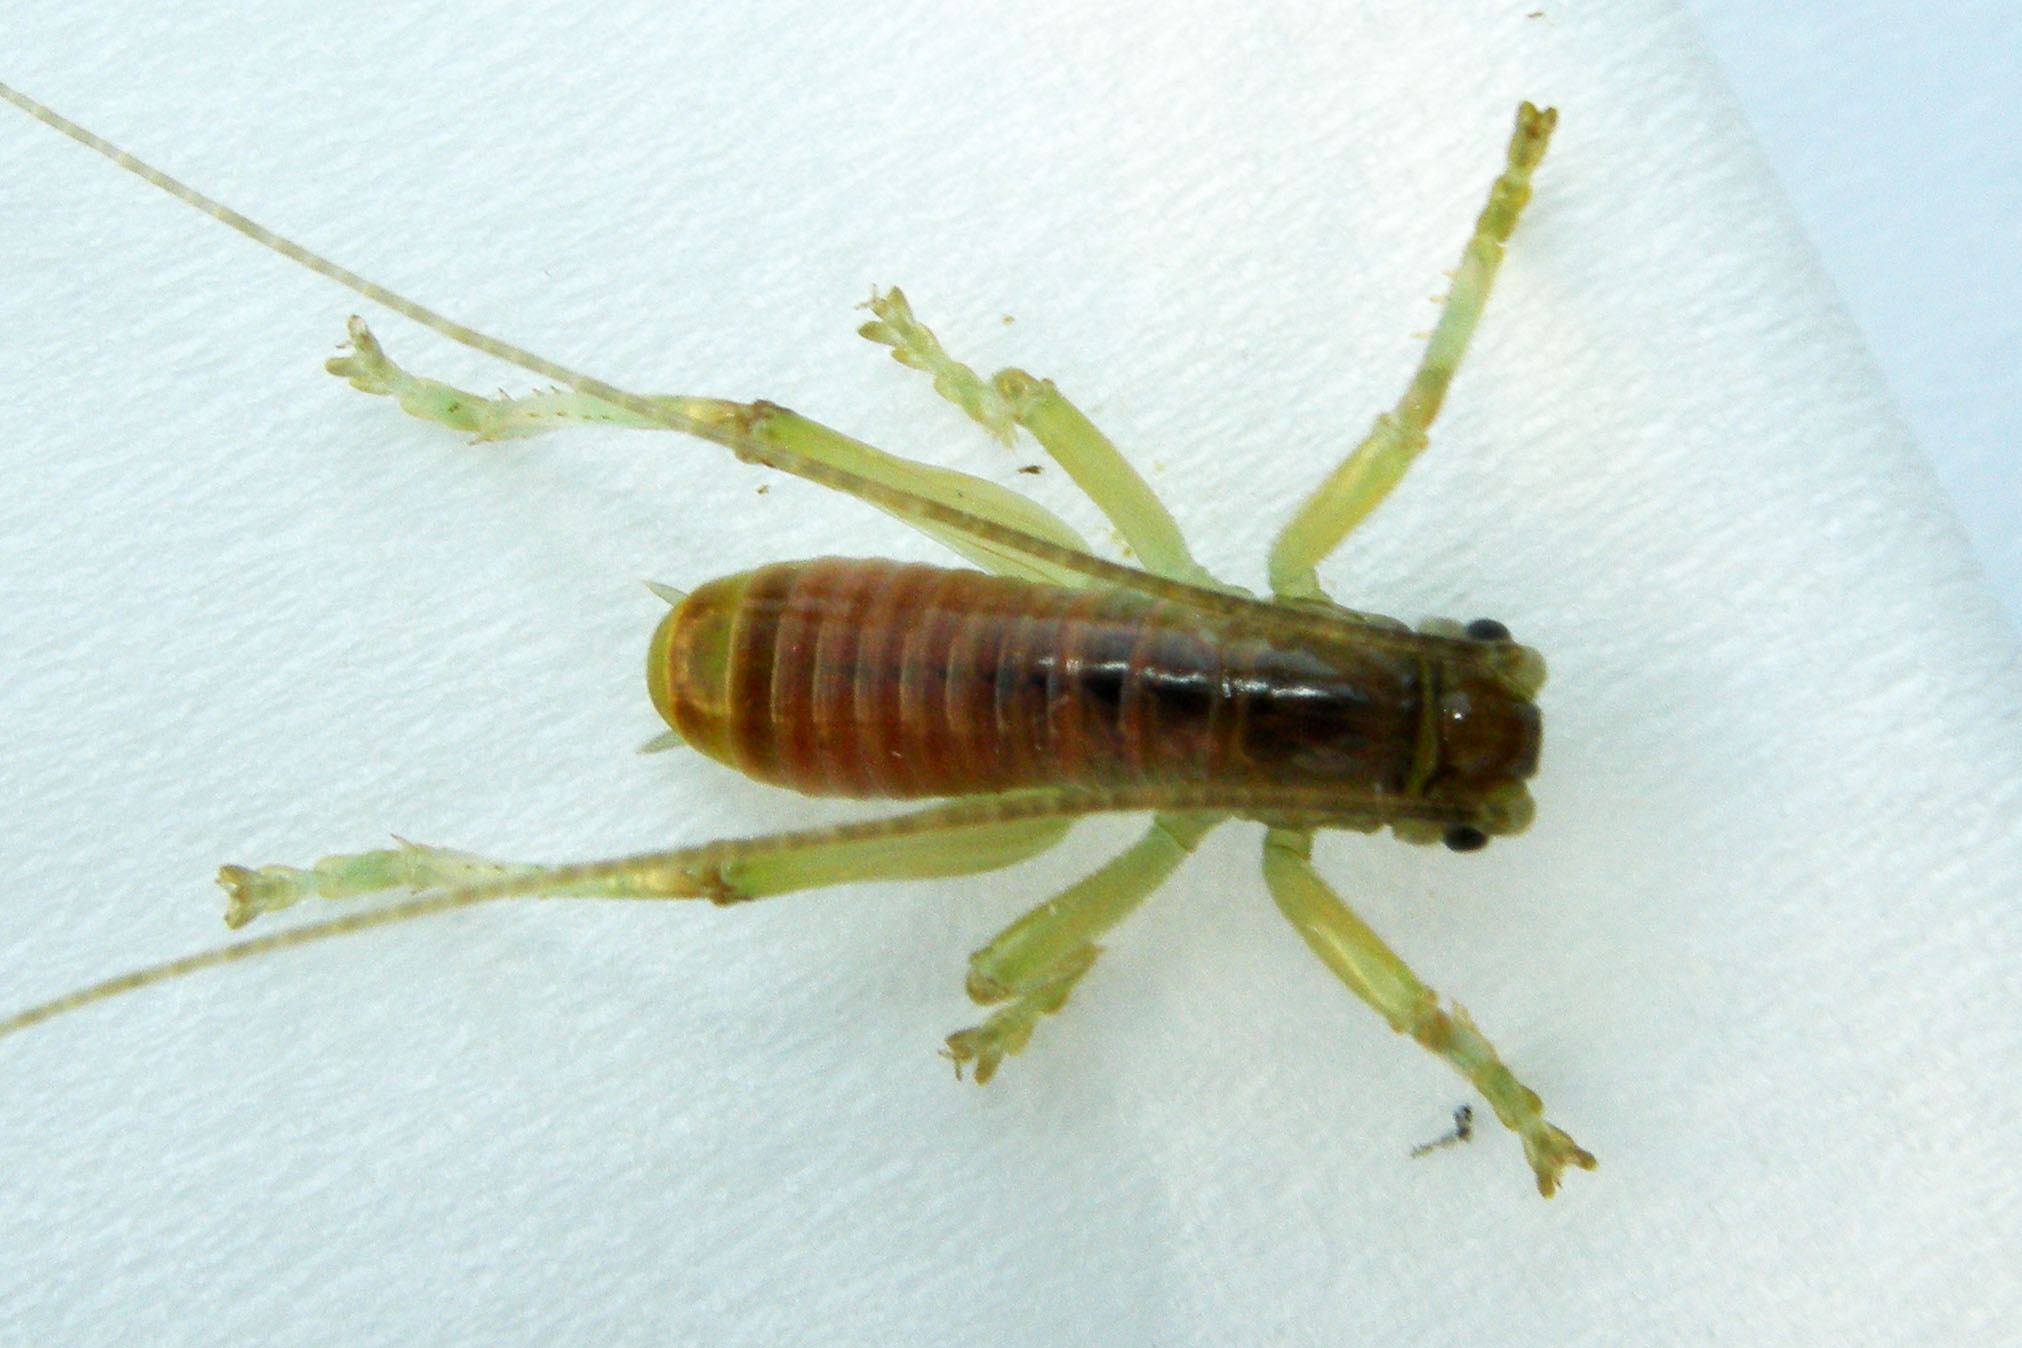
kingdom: Animalia
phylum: Arthropoda
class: Insecta
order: Orthoptera
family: Gryllacrididae
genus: Camptonotus
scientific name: Camptonotus carolinensis
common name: Carolina leaf-roller
